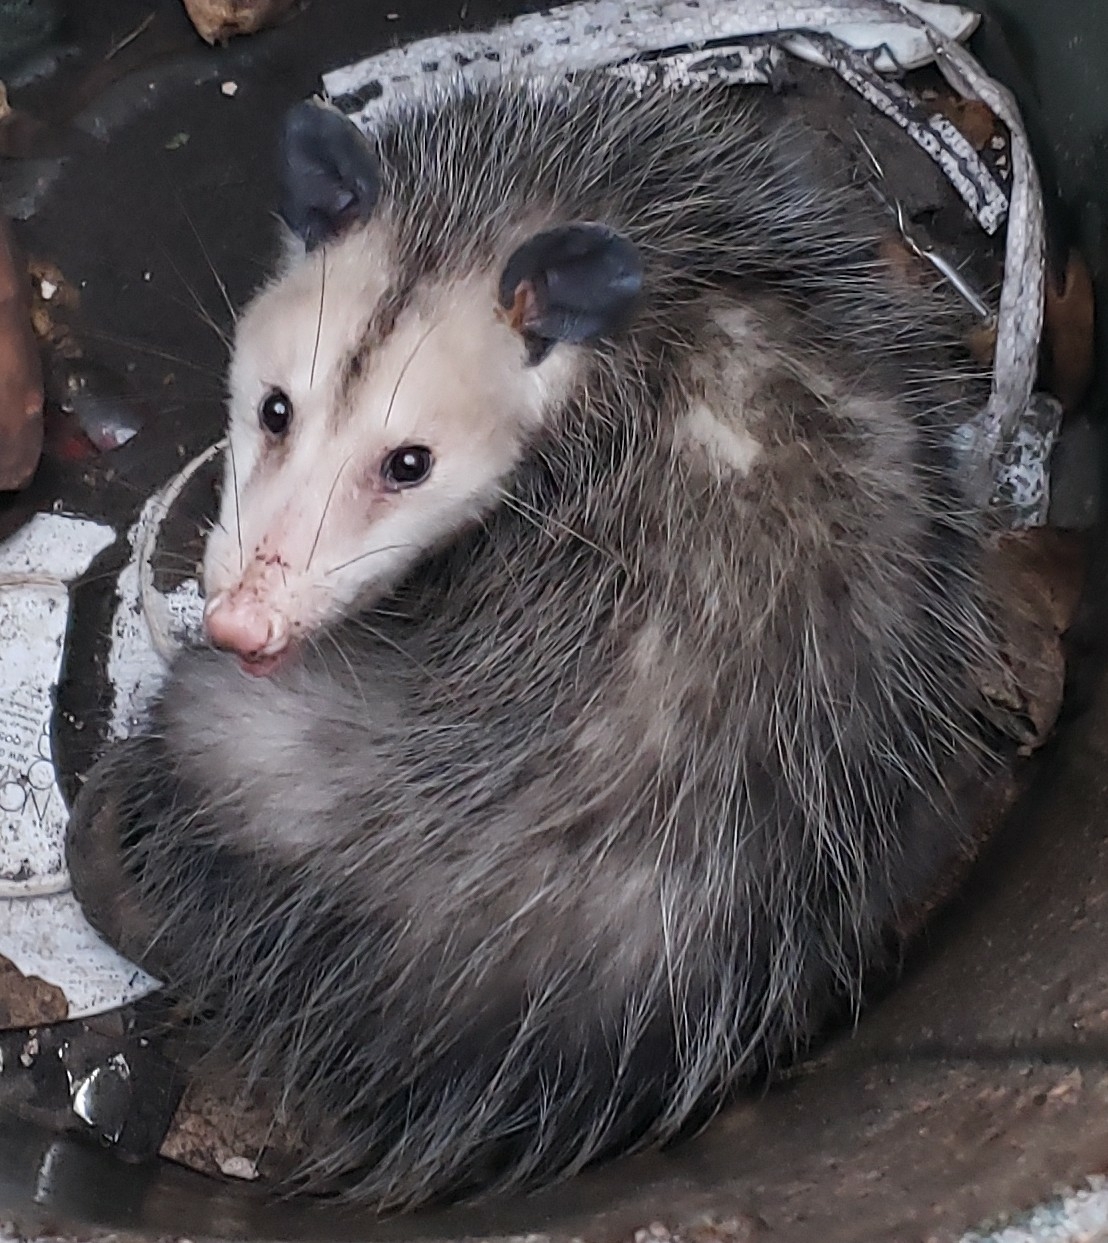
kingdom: Animalia
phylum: Chordata
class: Mammalia
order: Didelphimorphia
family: Didelphidae
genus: Didelphis
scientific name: Didelphis virginiana
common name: Virginia opossum
